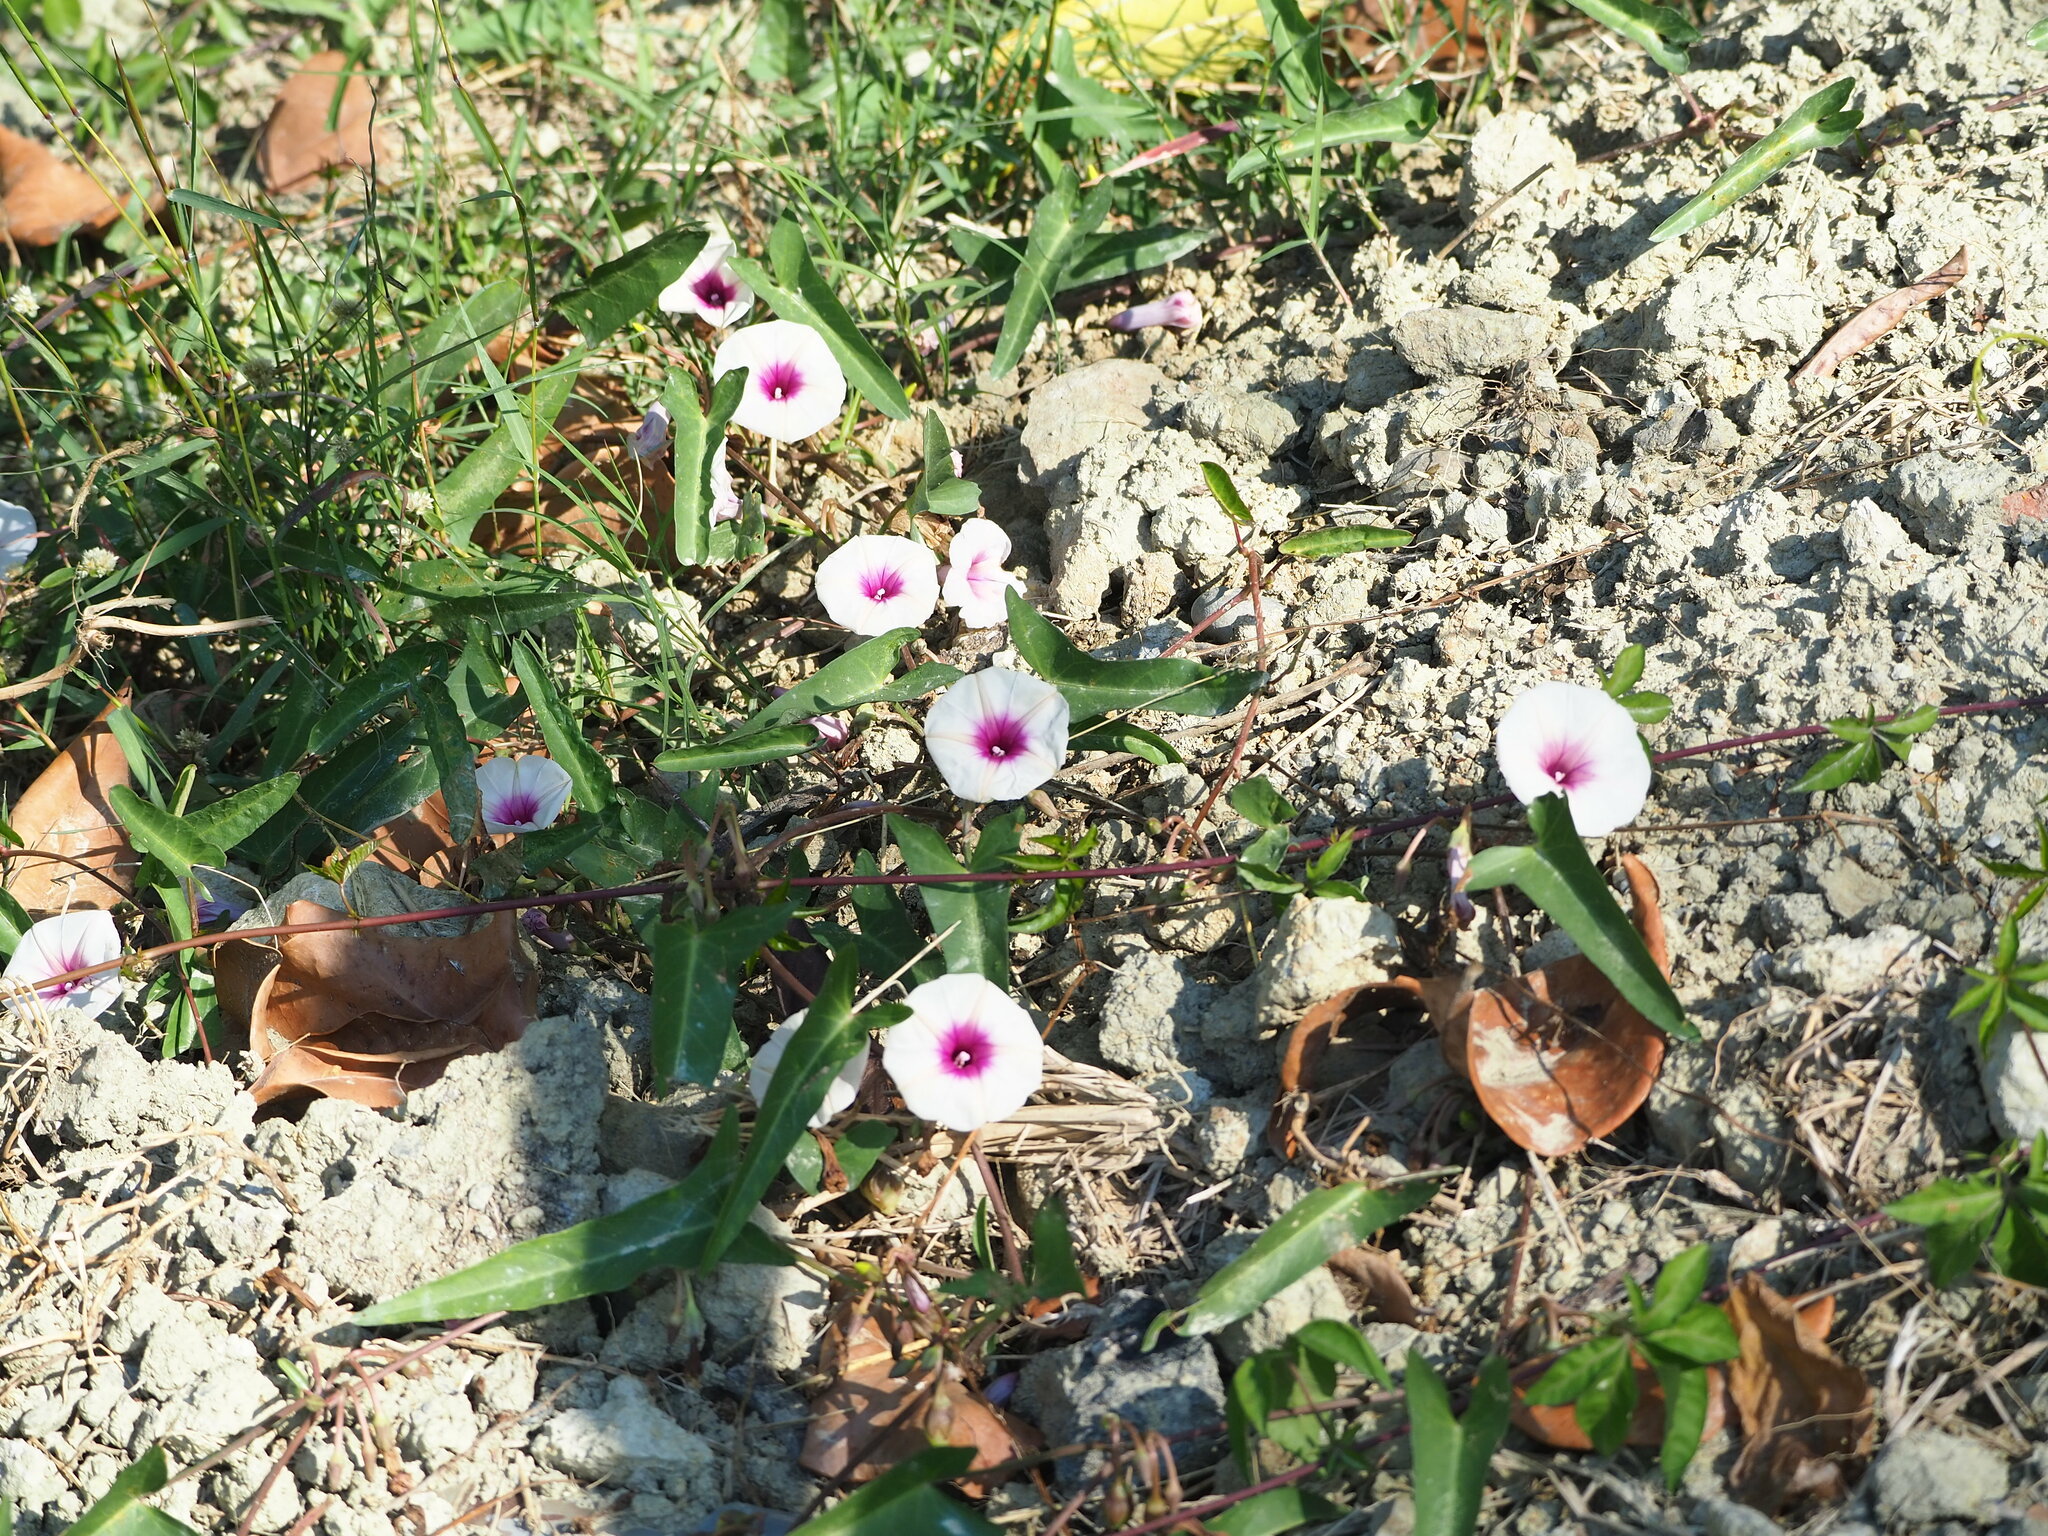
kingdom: Plantae
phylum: Tracheophyta
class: Magnoliopsida
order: Solanales
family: Convolvulaceae
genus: Ipomoea
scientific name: Ipomoea aquatica
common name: Swamp morning-glory
